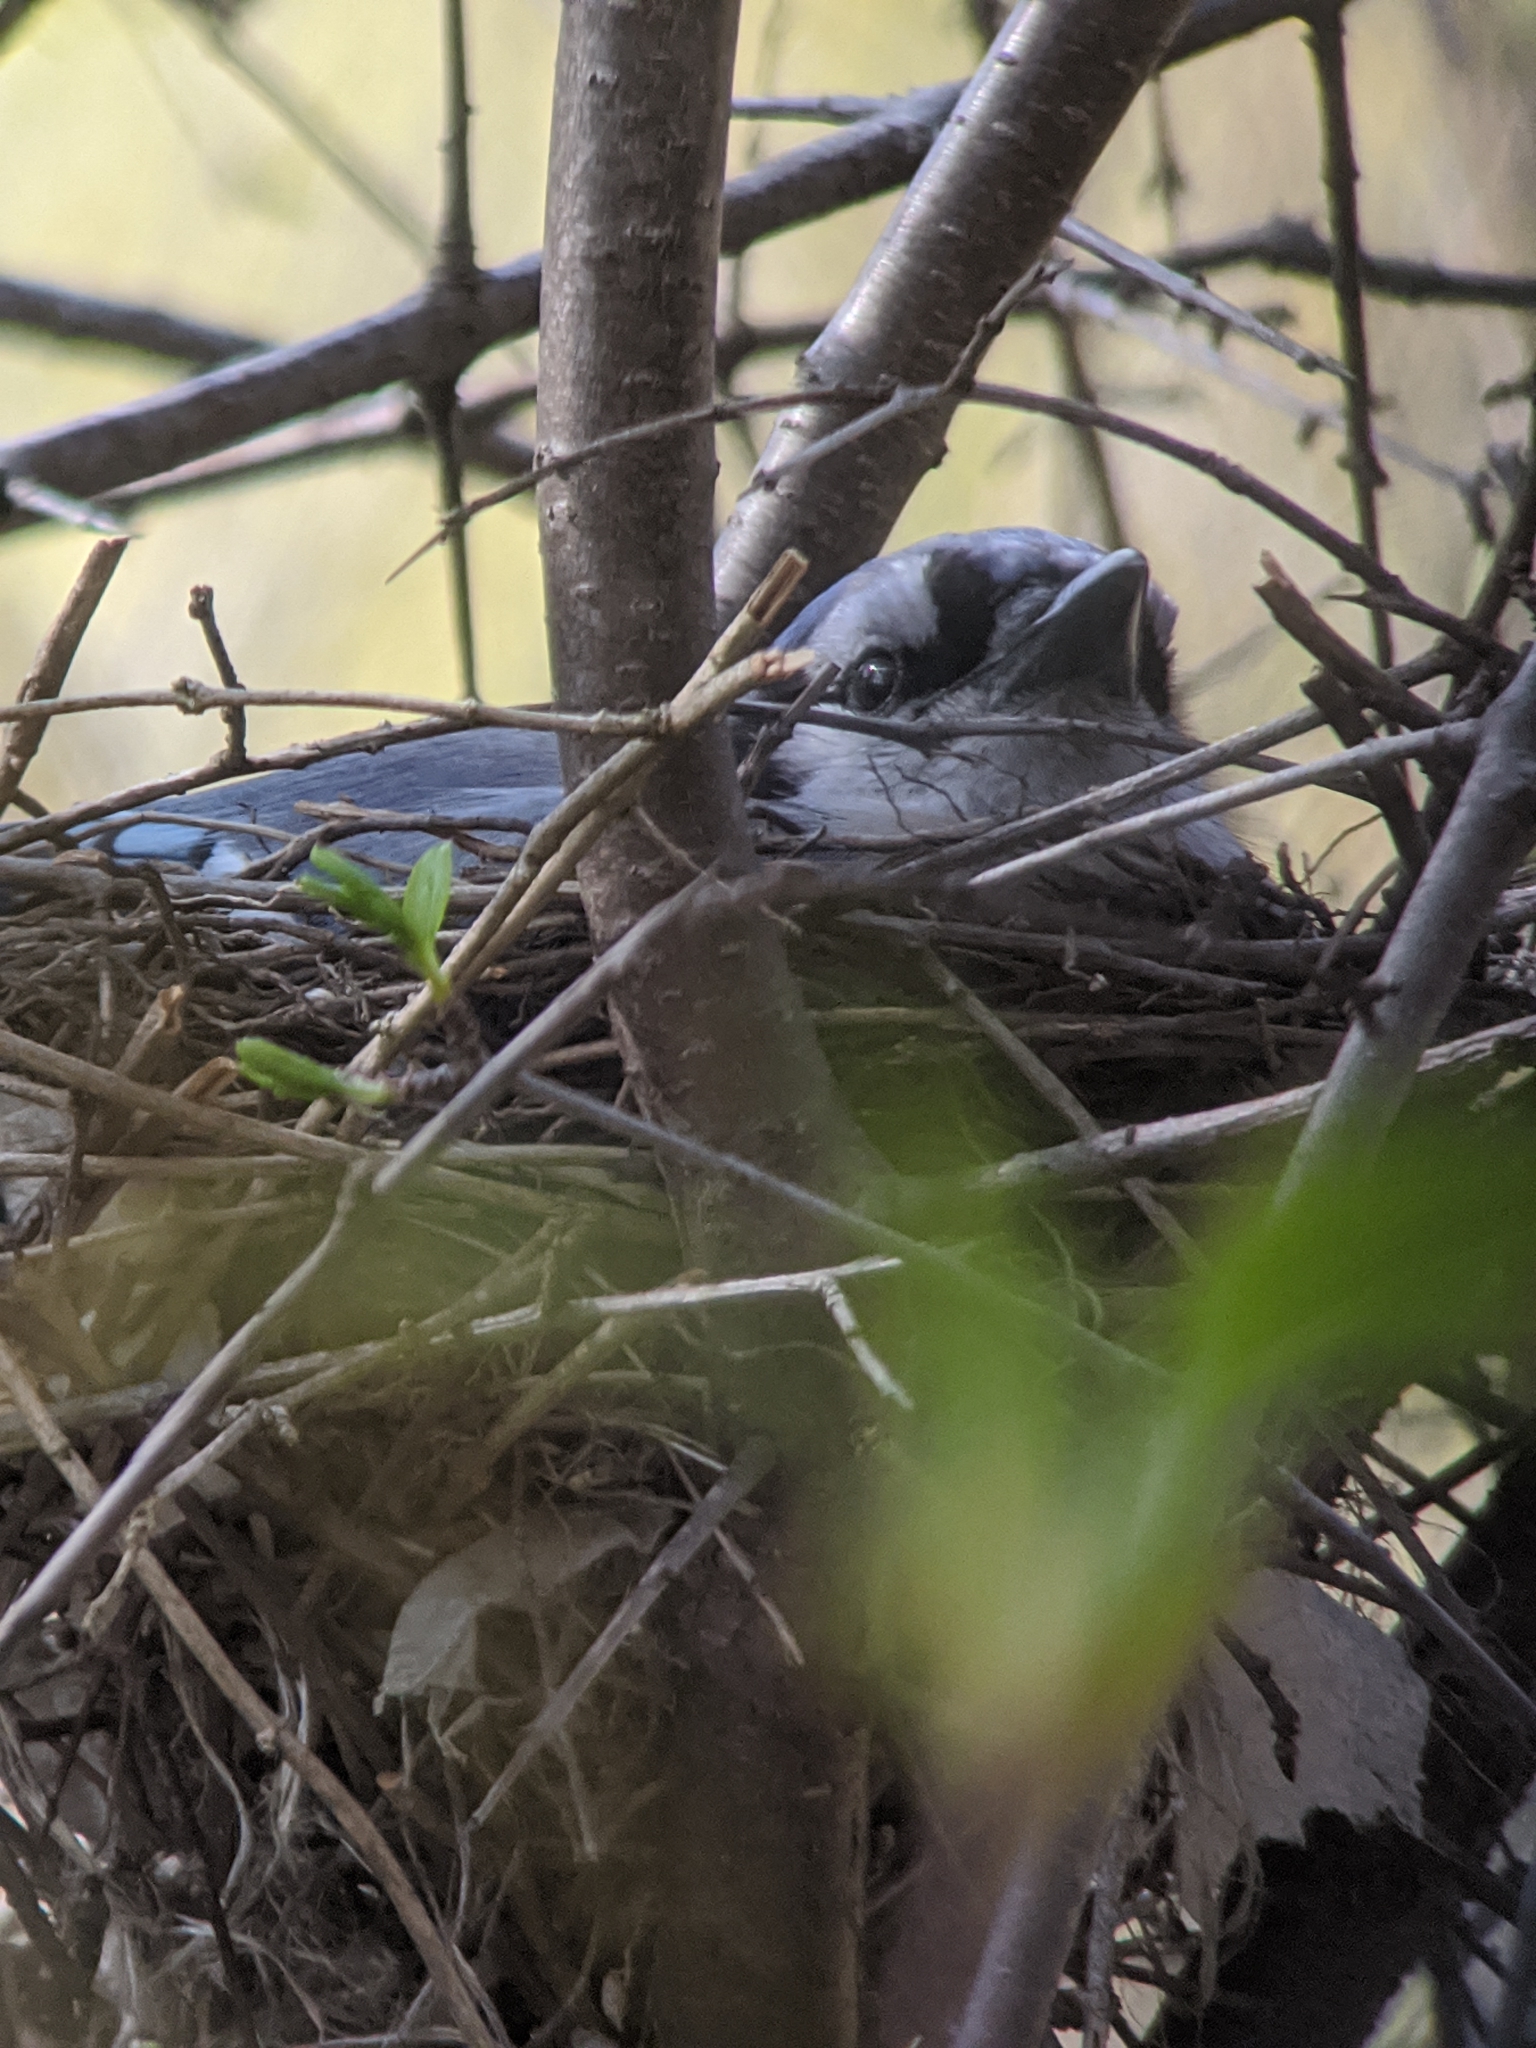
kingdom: Animalia
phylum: Chordata
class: Aves
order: Passeriformes
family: Corvidae
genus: Cyanocitta
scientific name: Cyanocitta cristata
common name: Blue jay
